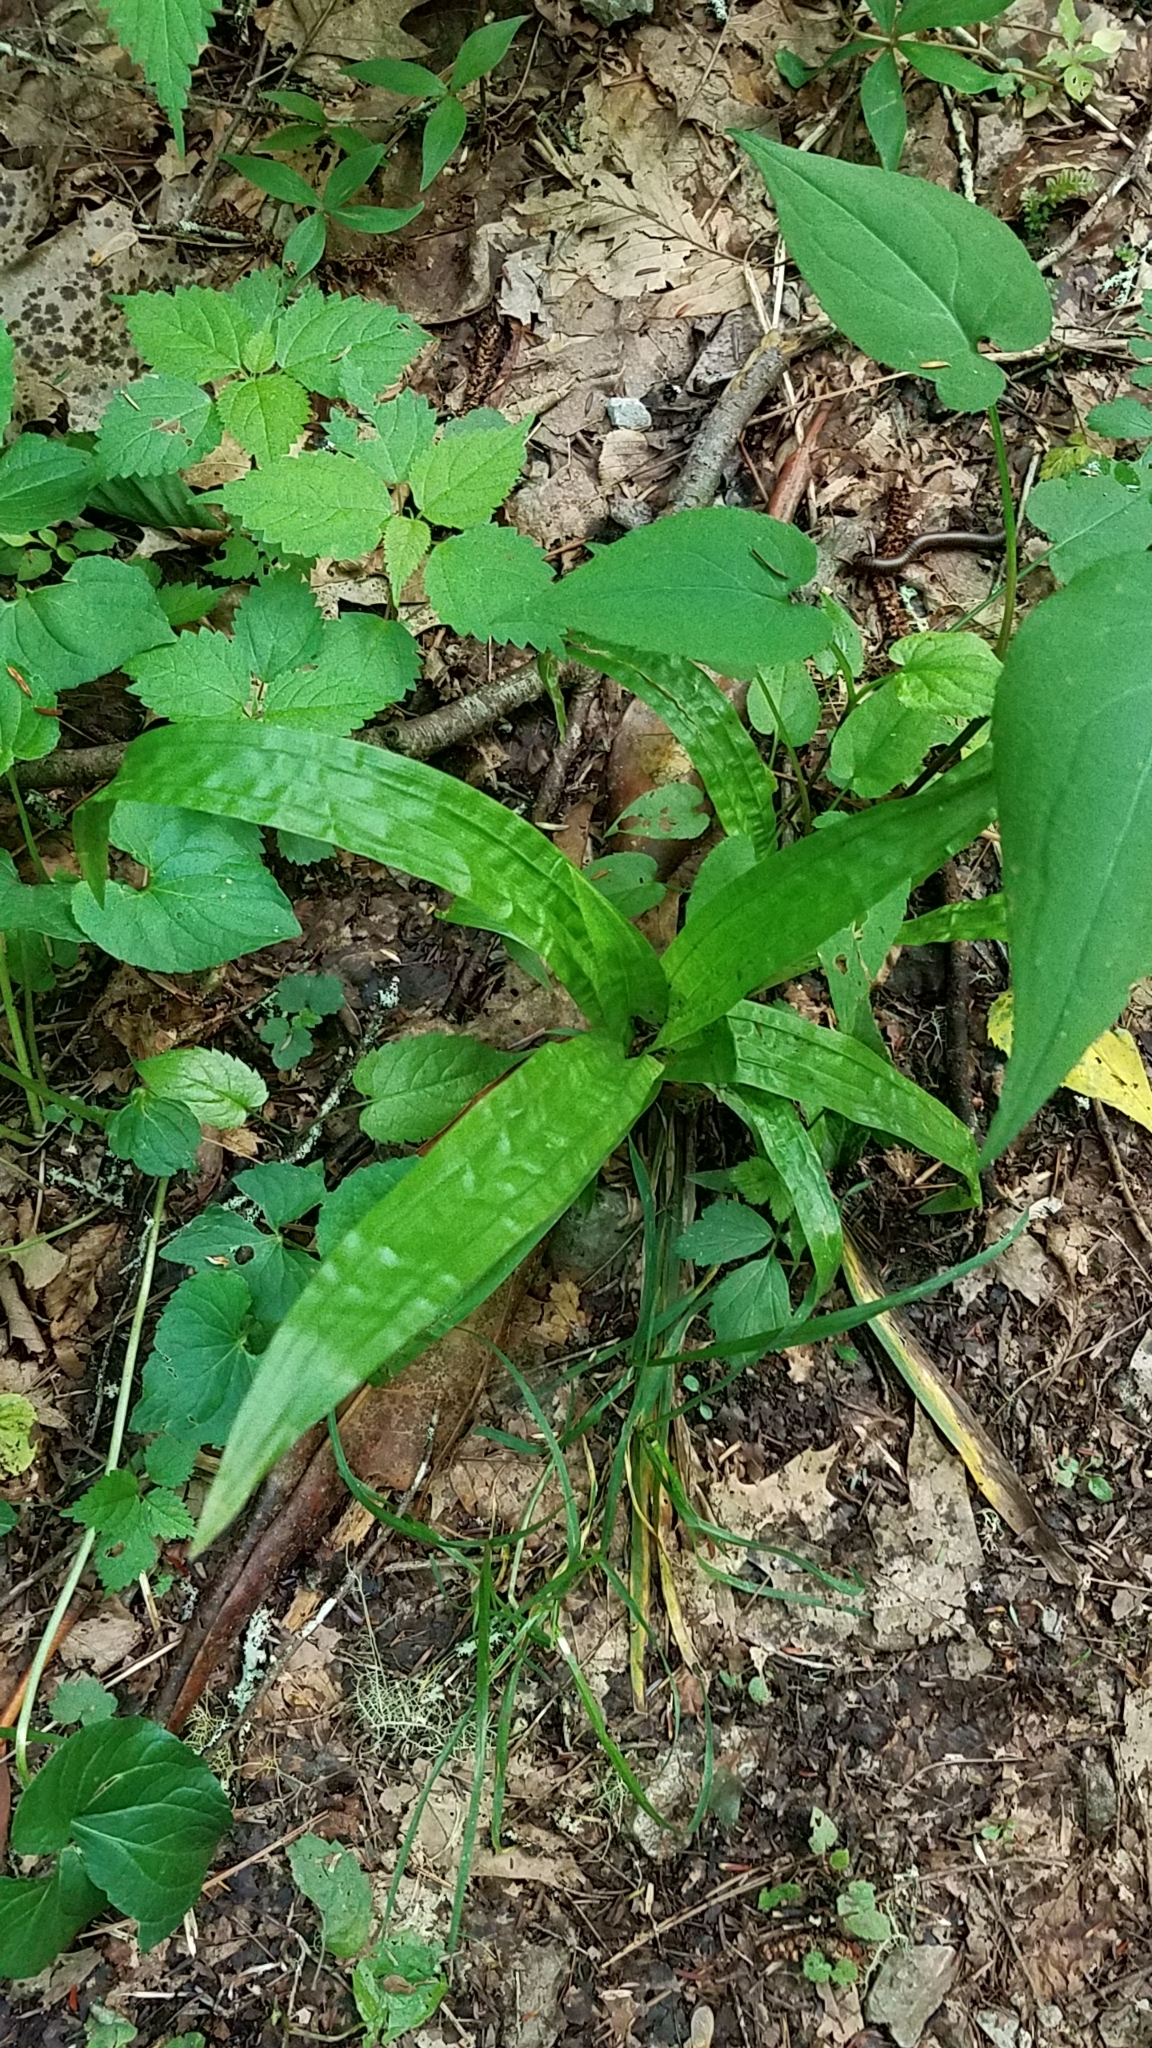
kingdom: Plantae
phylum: Tracheophyta
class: Liliopsida
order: Poales
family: Cyperaceae
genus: Carex
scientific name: Carex plantaginea
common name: Plantain-leaved sedge
